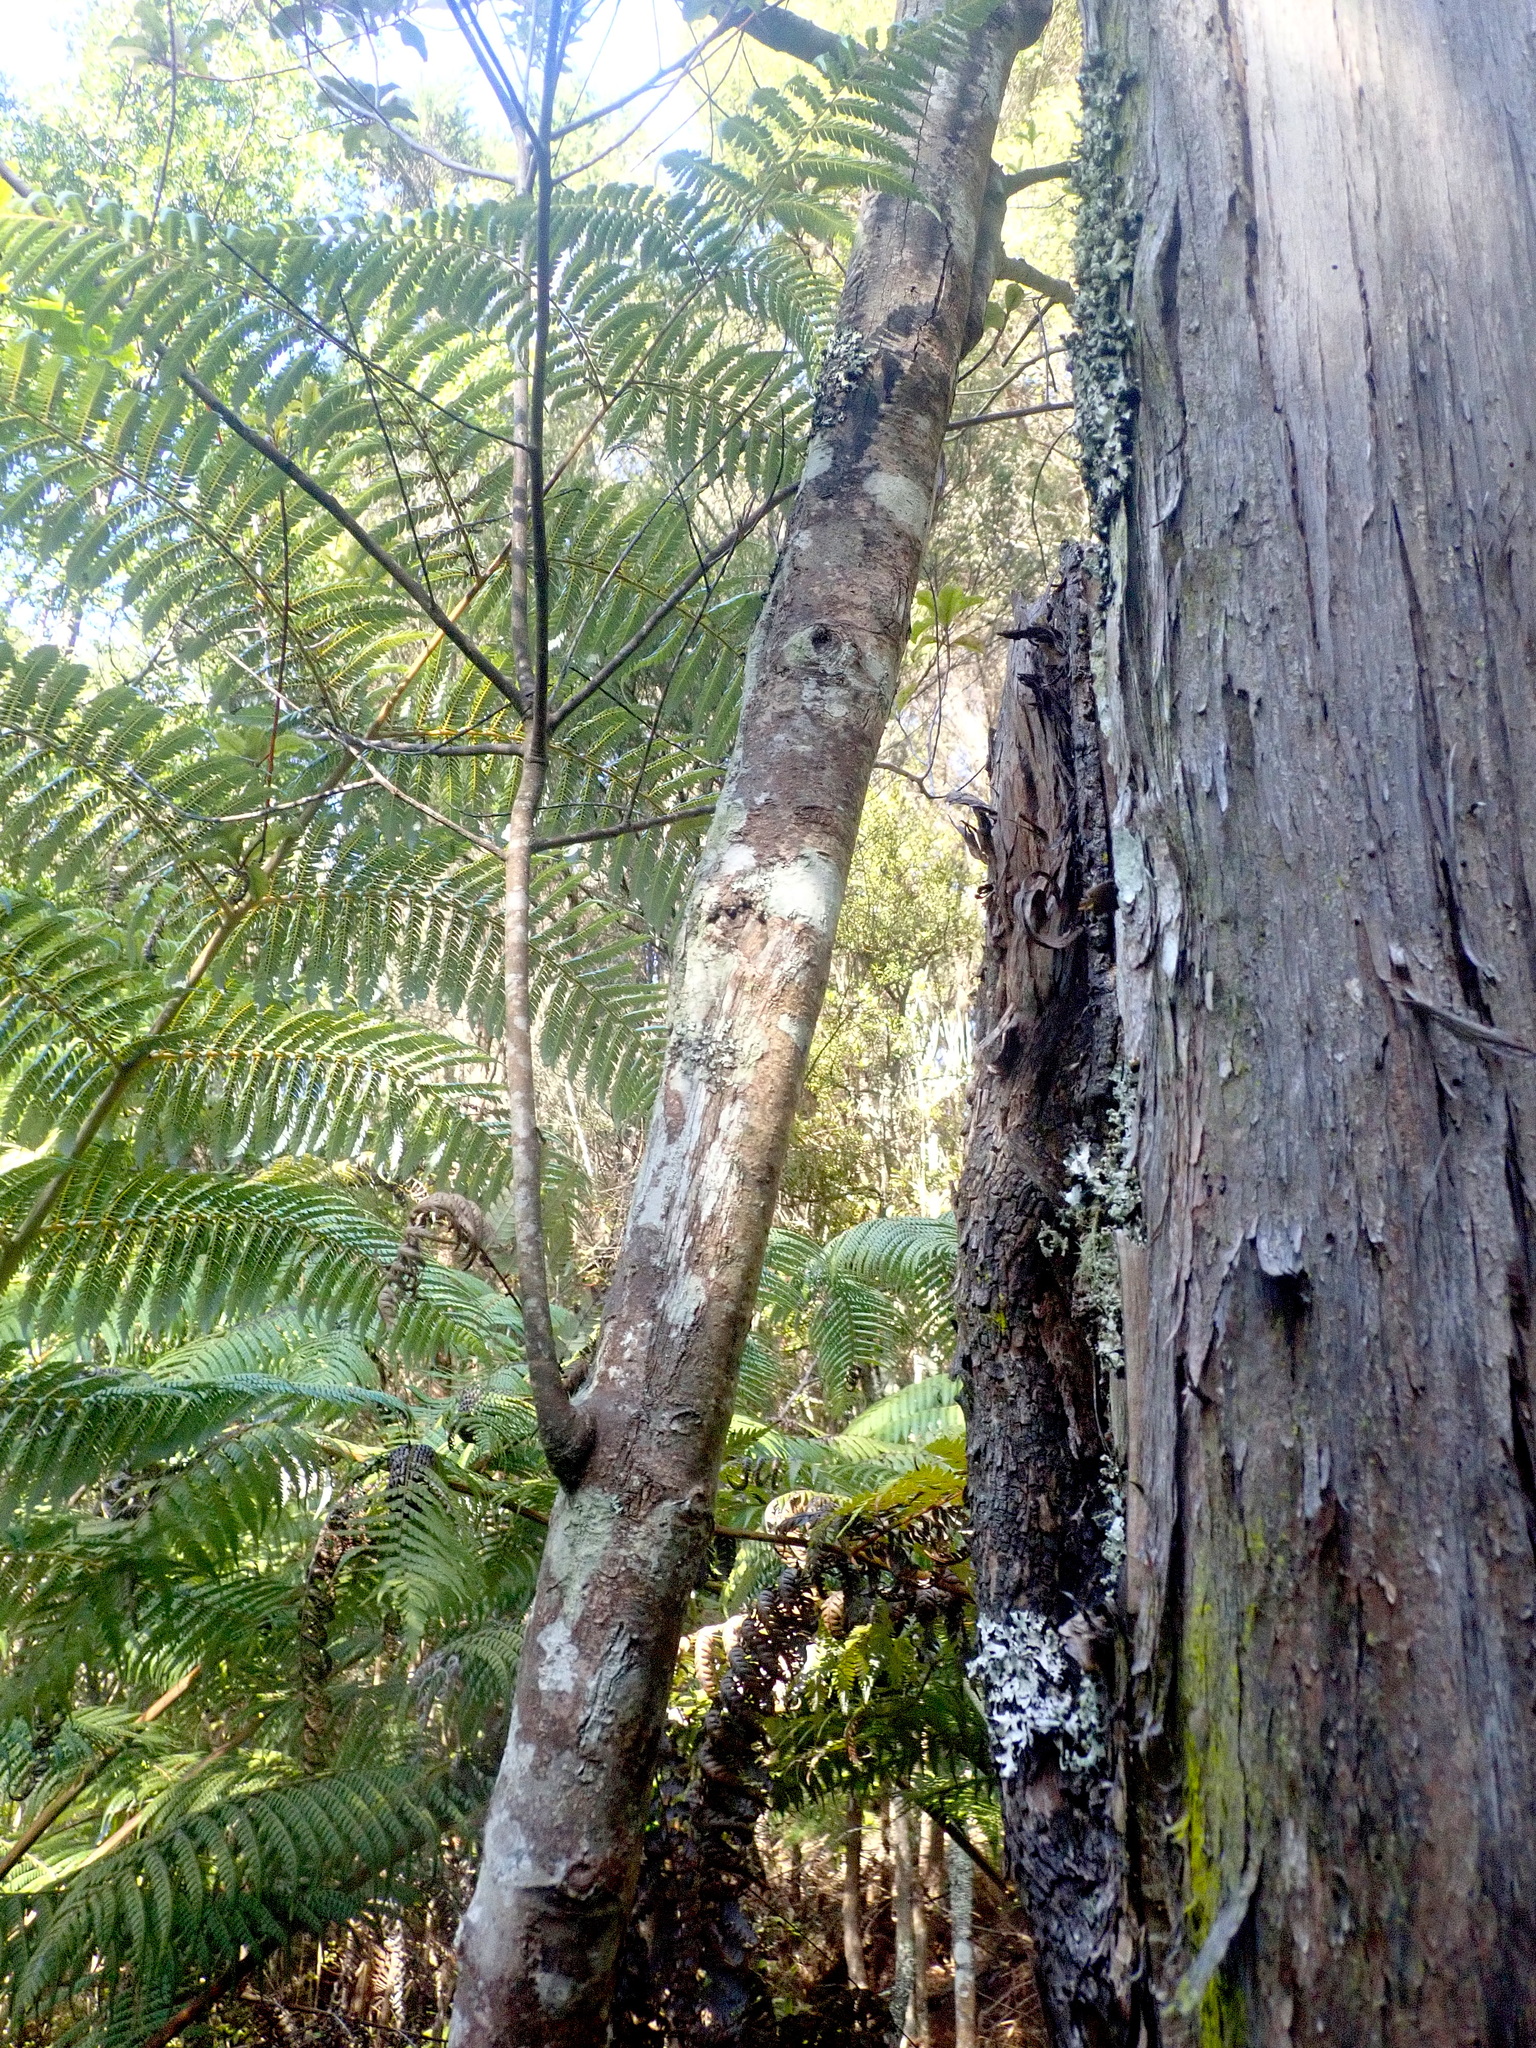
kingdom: Plantae
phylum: Tracheophyta
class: Magnoliopsida
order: Ericales
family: Primulaceae
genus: Myrsine
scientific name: Myrsine australis
